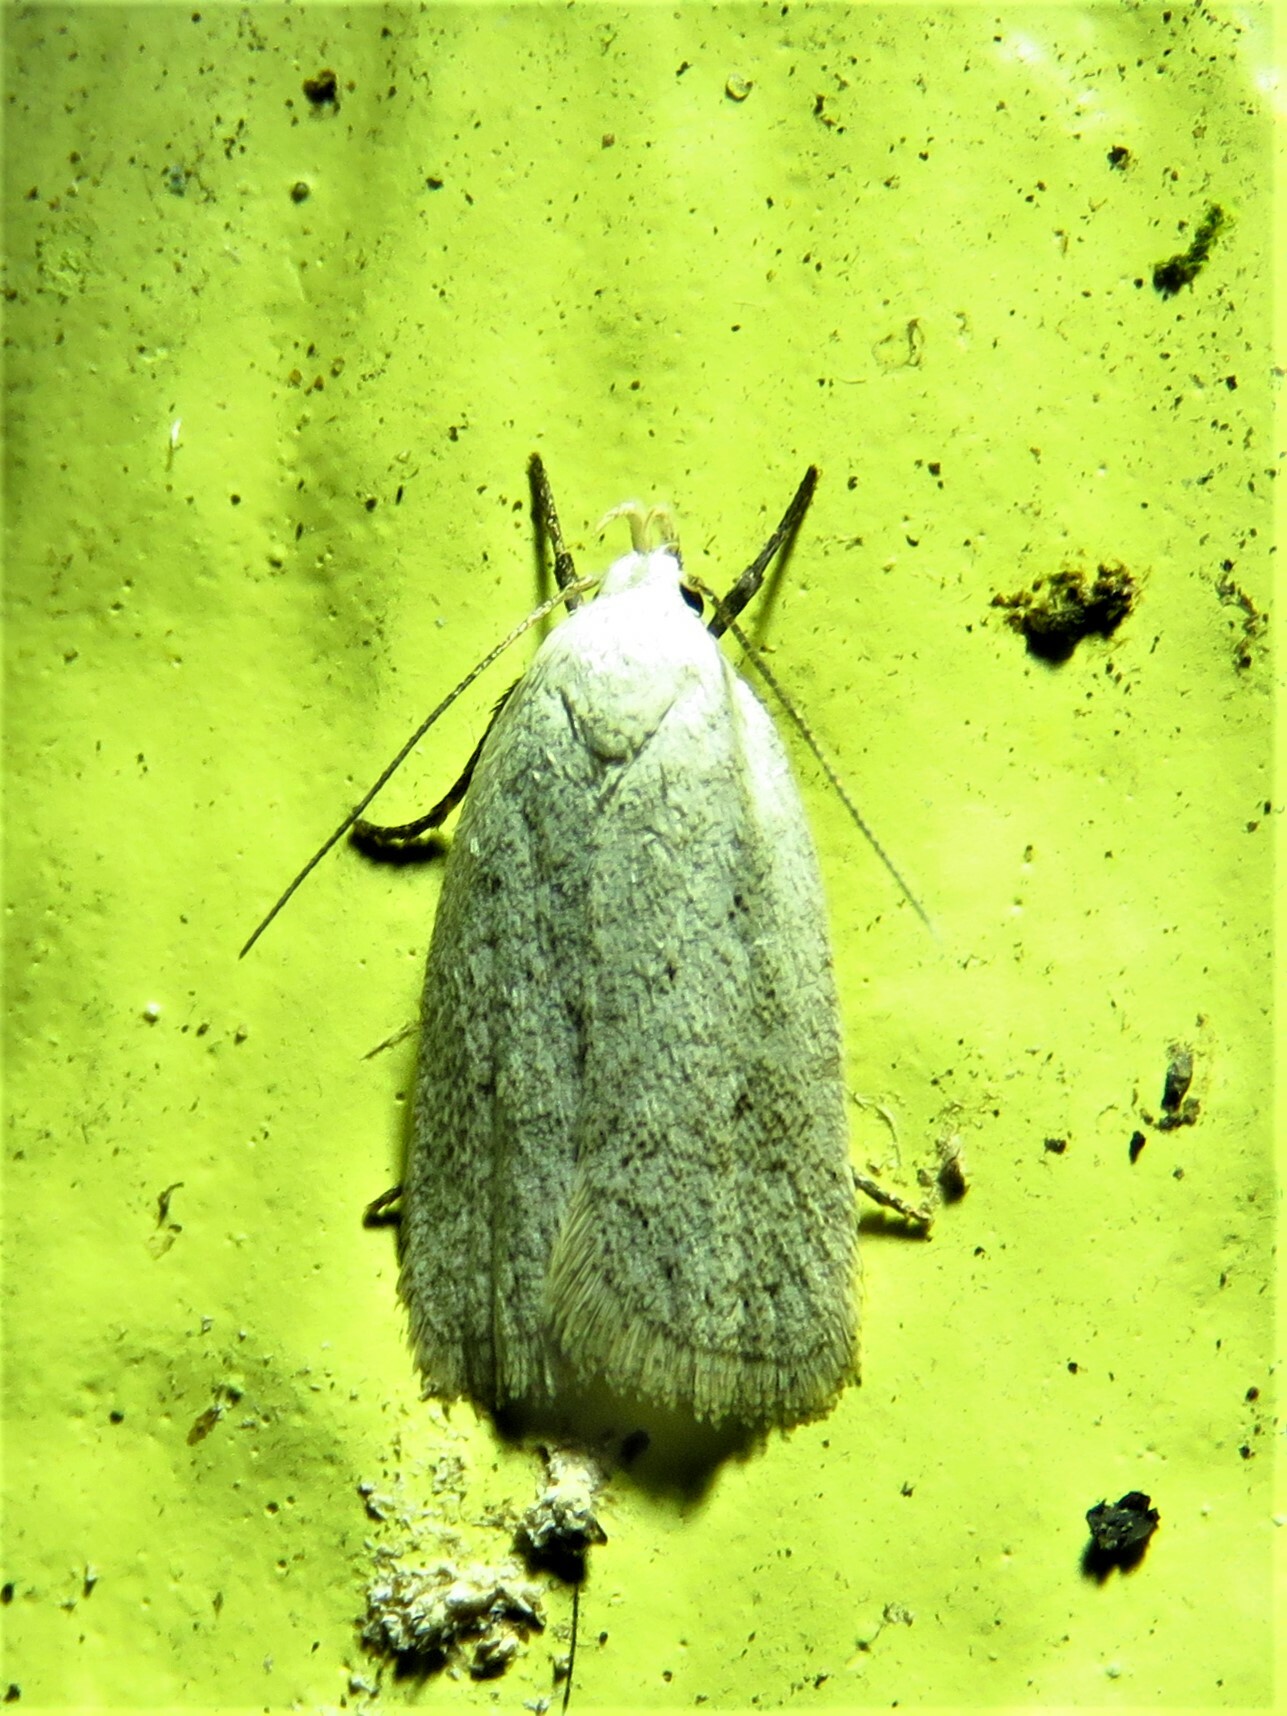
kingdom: Animalia
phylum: Arthropoda
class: Insecta
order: Lepidoptera
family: Oecophoridae
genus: Inga
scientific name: Inga cretacea
